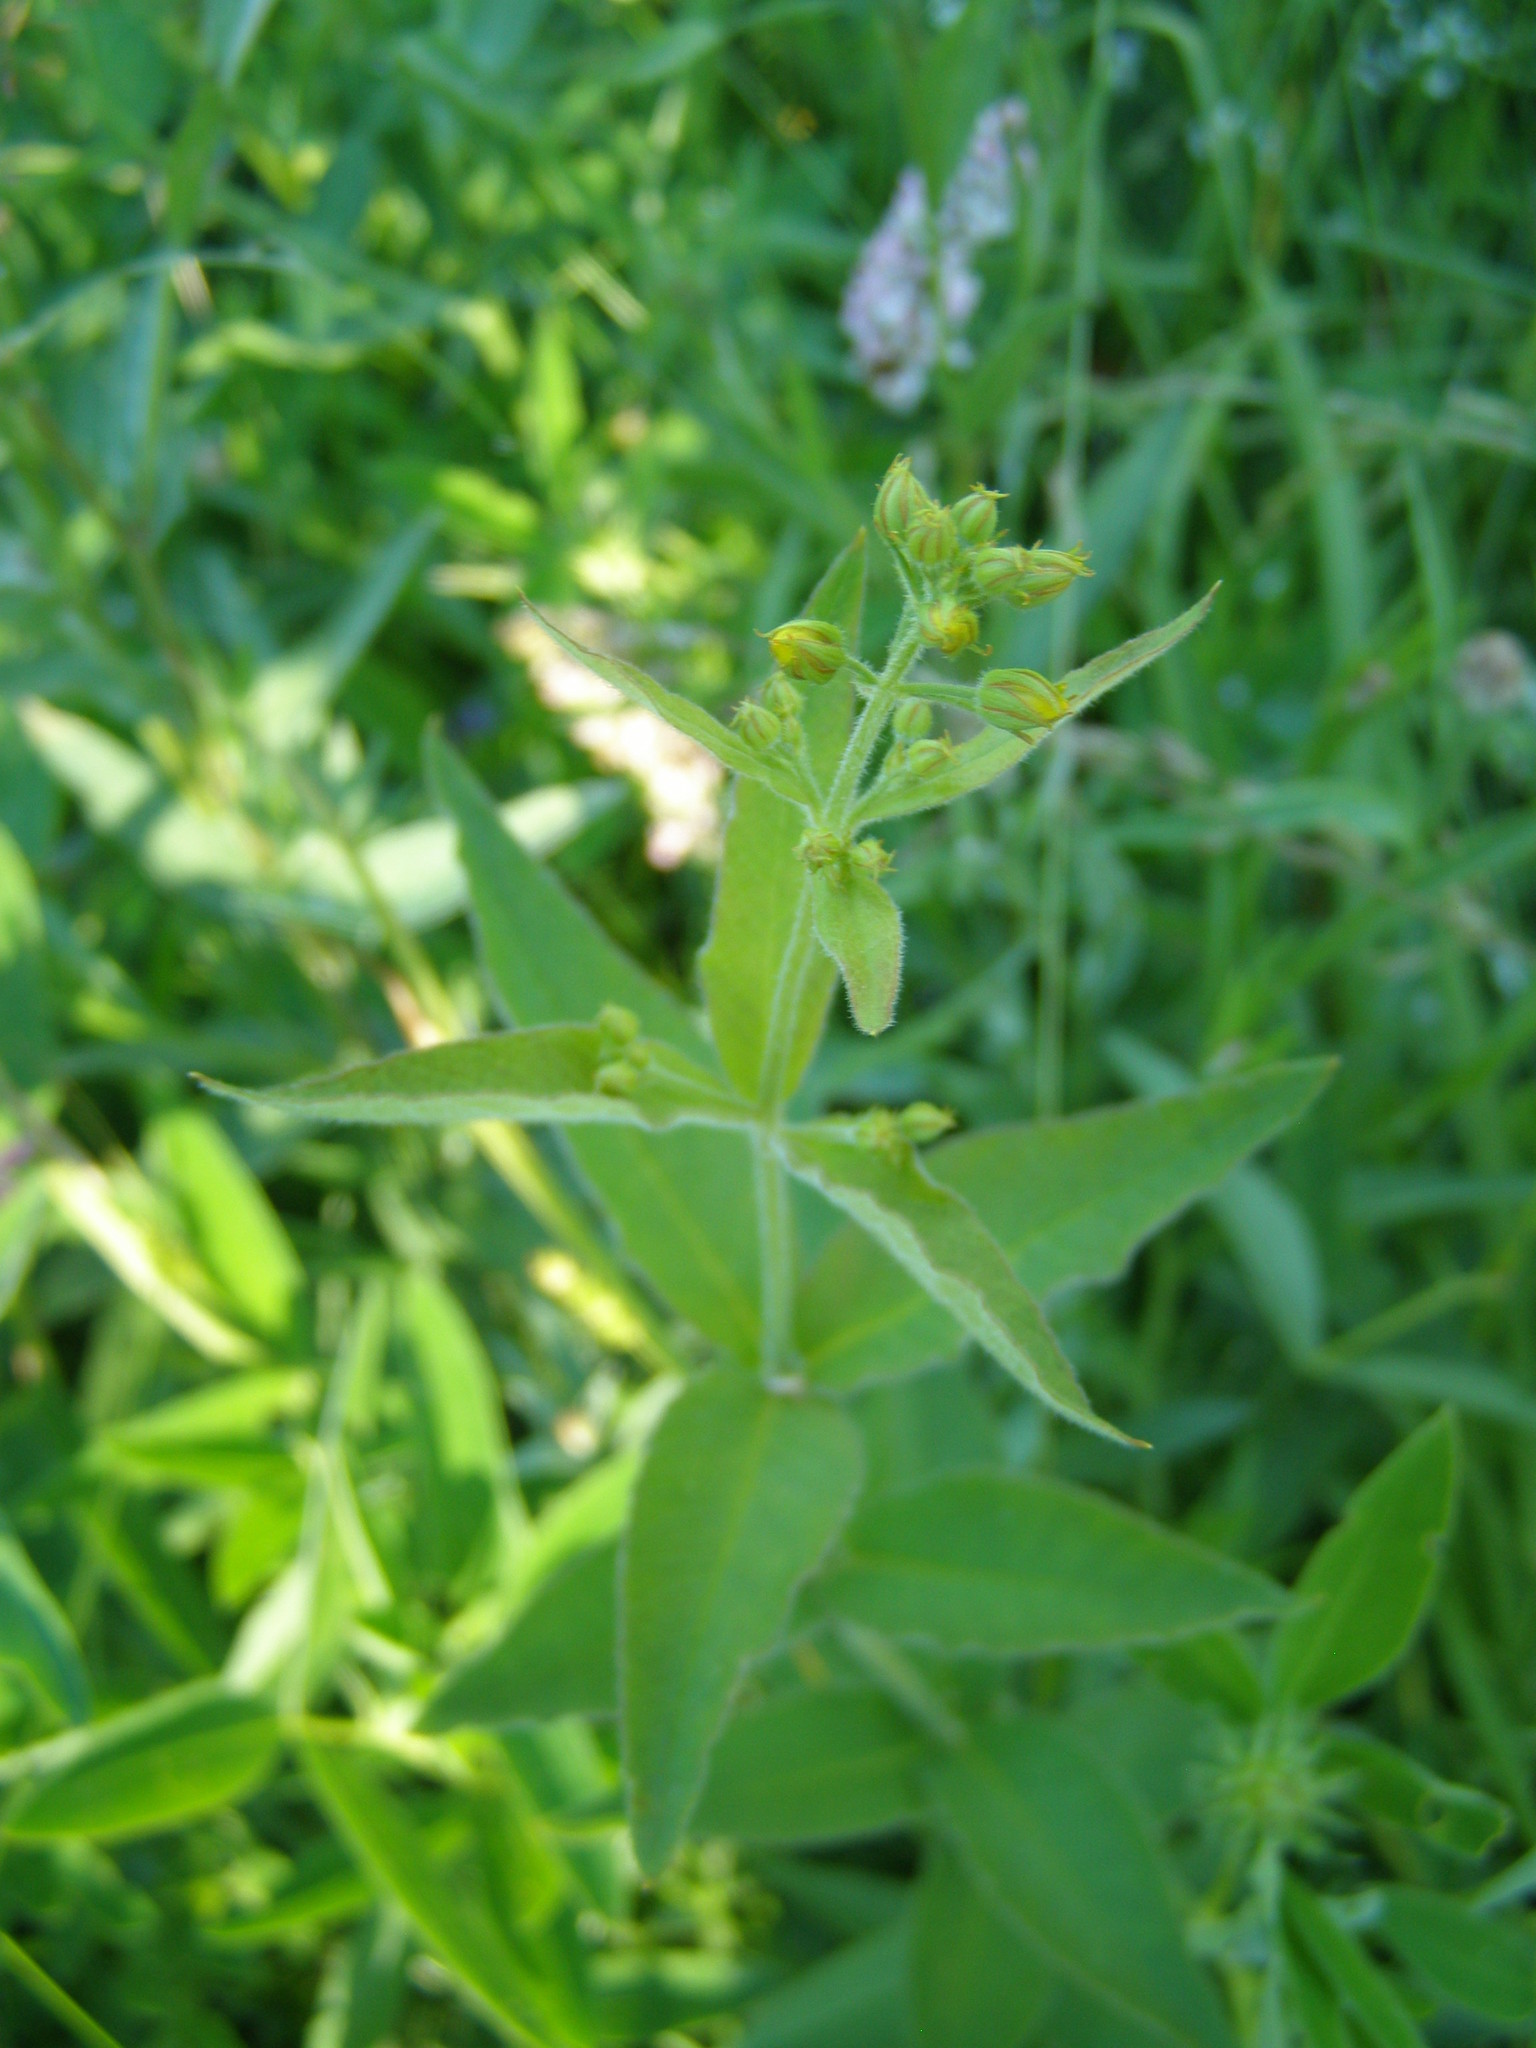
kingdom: Plantae
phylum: Tracheophyta
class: Magnoliopsida
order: Ericales
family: Primulaceae
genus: Lysimachia
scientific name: Lysimachia vulgaris
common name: Yellow loosestrife
